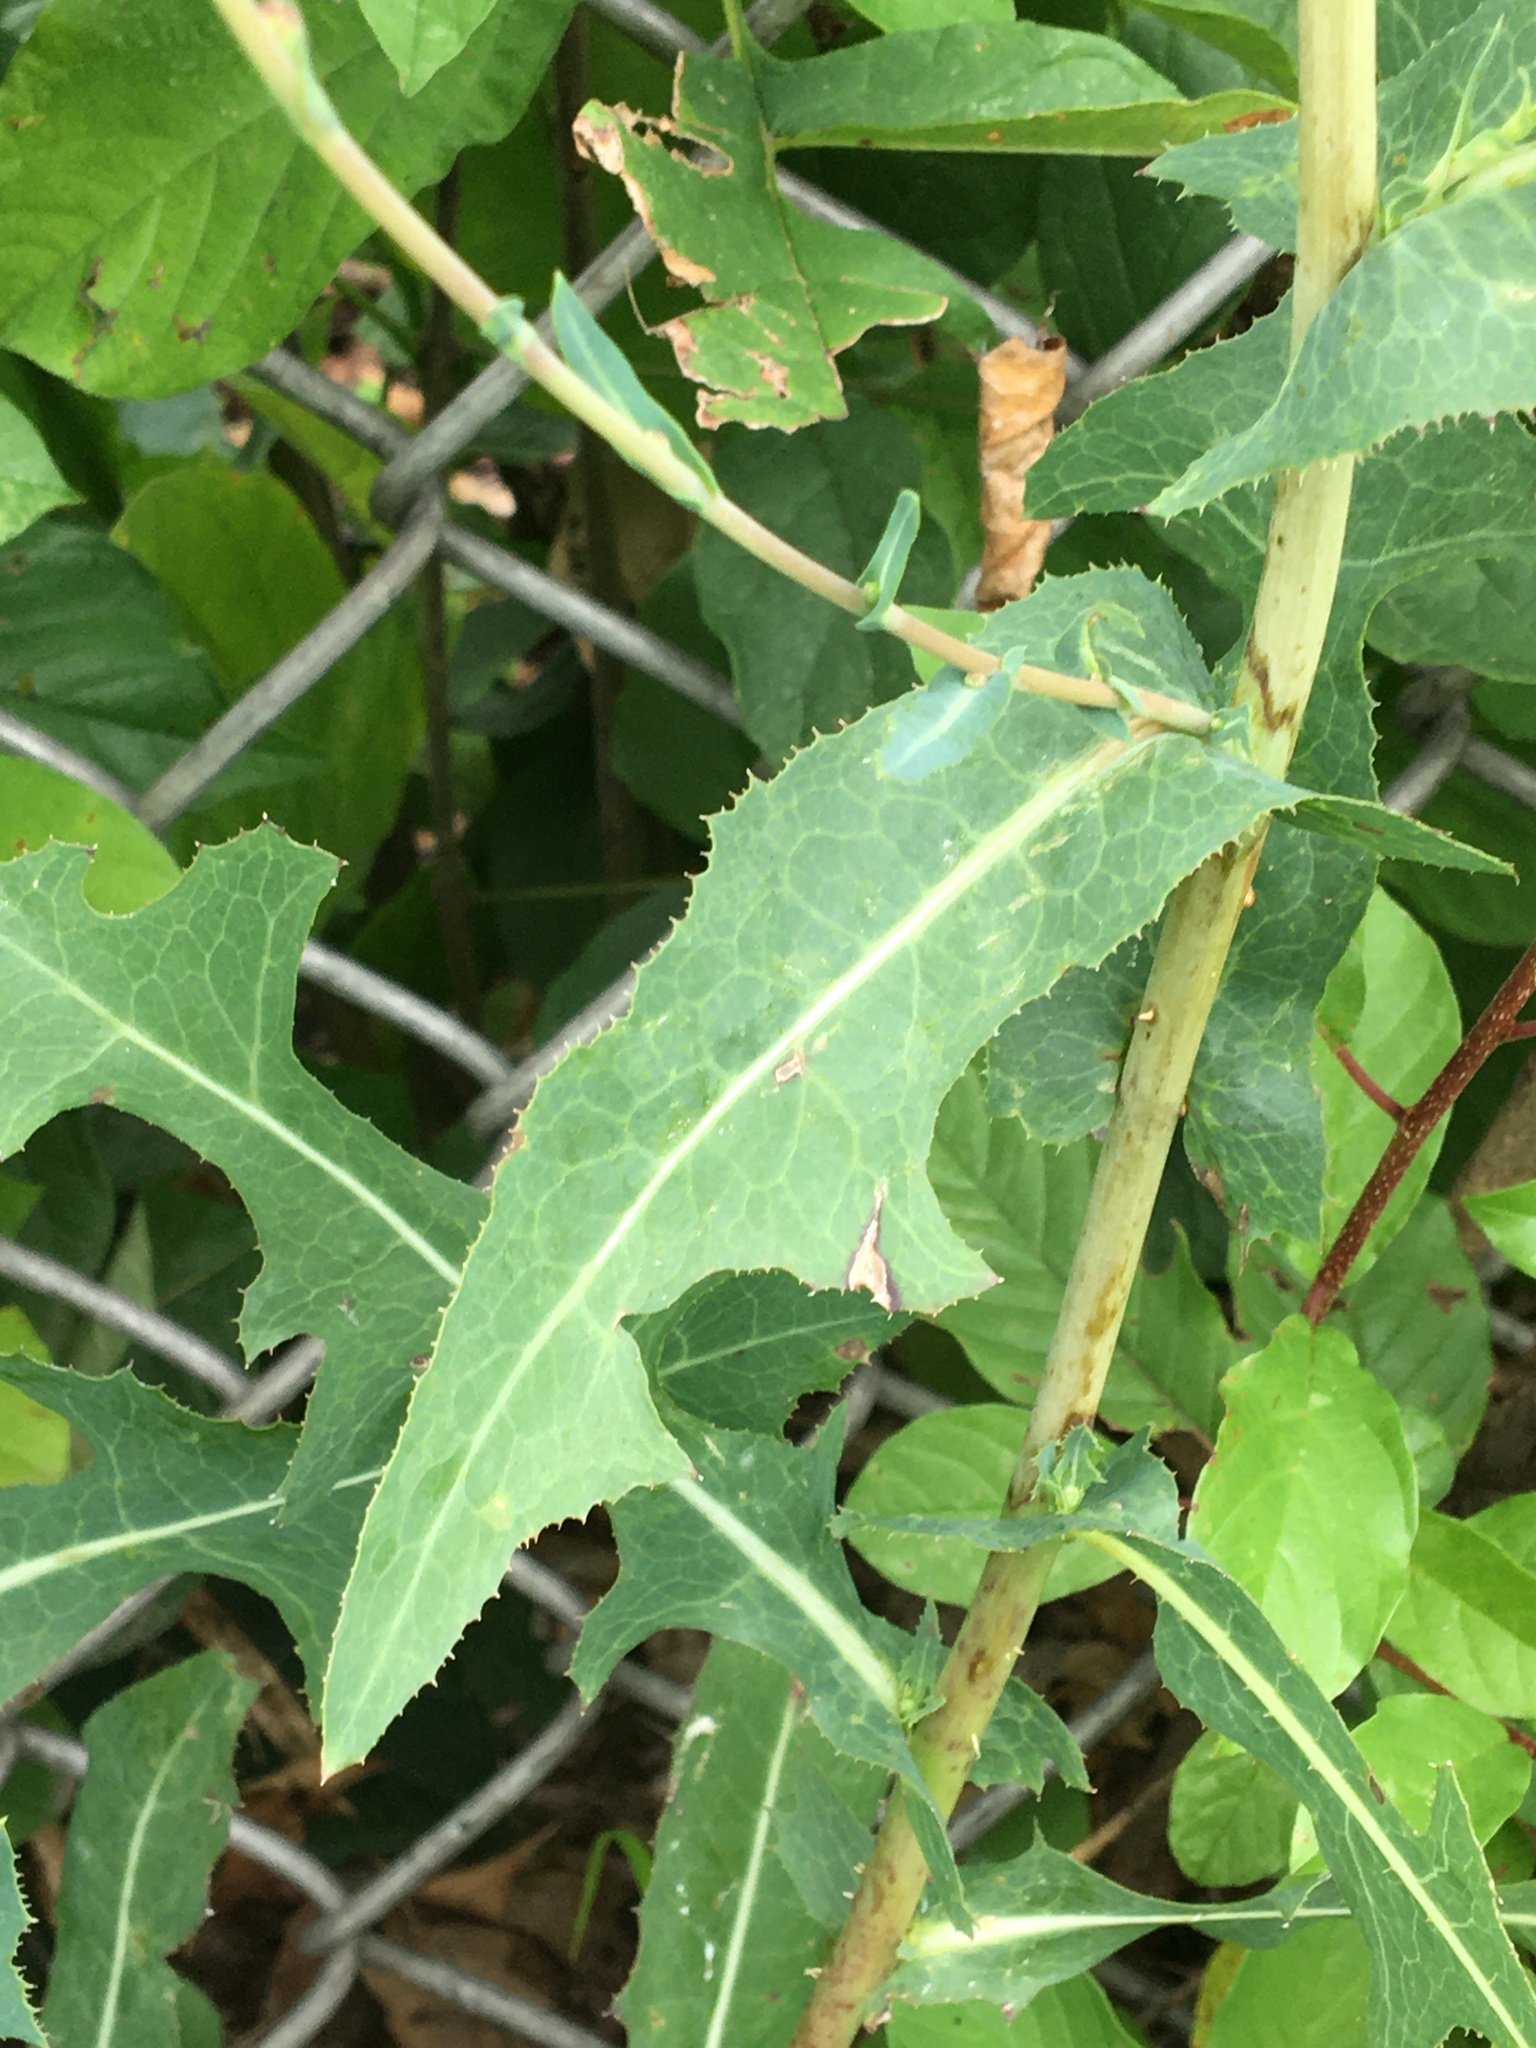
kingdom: Plantae
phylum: Tracheophyta
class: Magnoliopsida
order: Asterales
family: Asteraceae
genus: Lactuca
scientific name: Lactuca serriola
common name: Prickly lettuce
